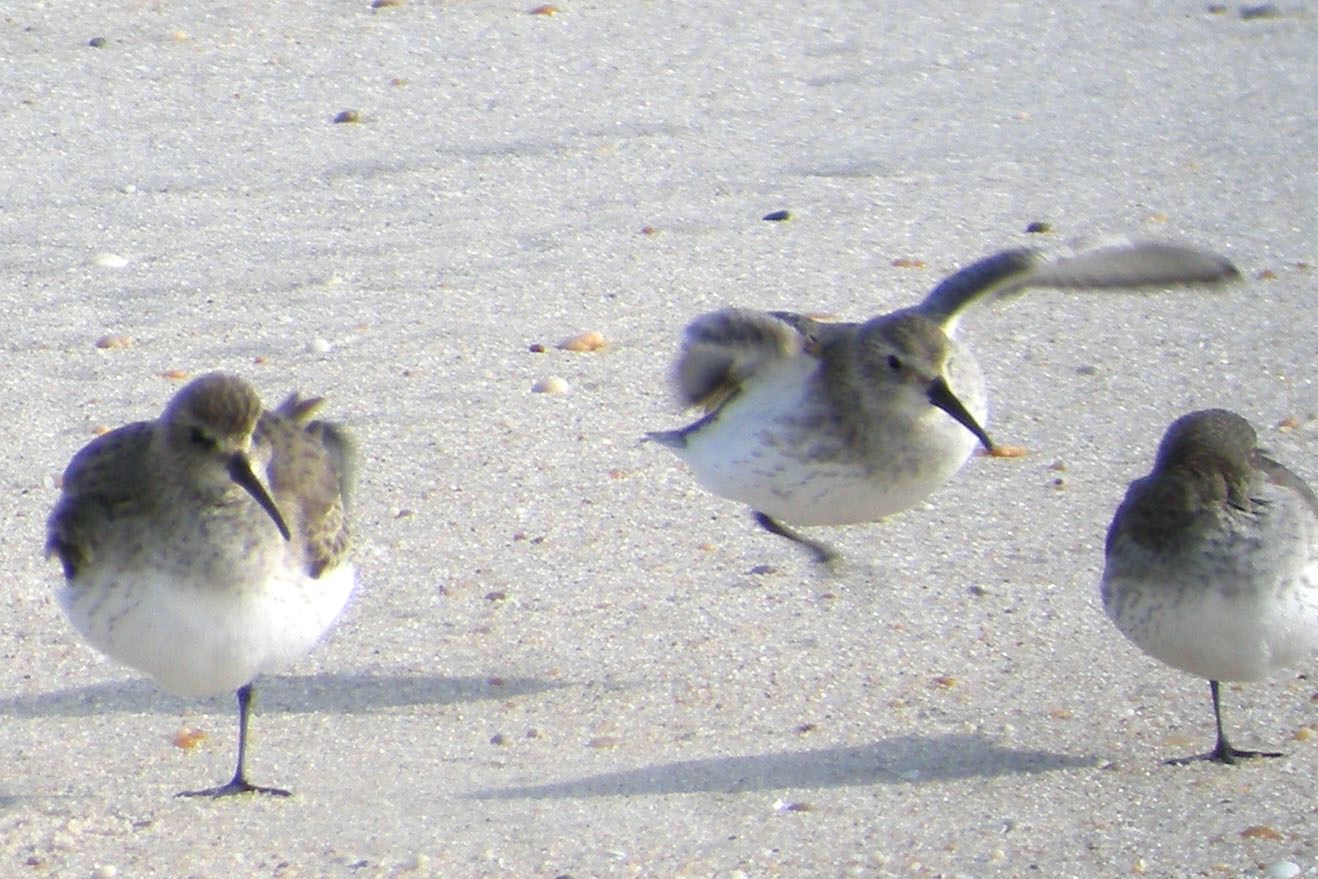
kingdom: Animalia
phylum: Chordata
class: Aves
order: Charadriiformes
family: Scolopacidae
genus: Calidris
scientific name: Calidris alpina
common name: Dunlin
